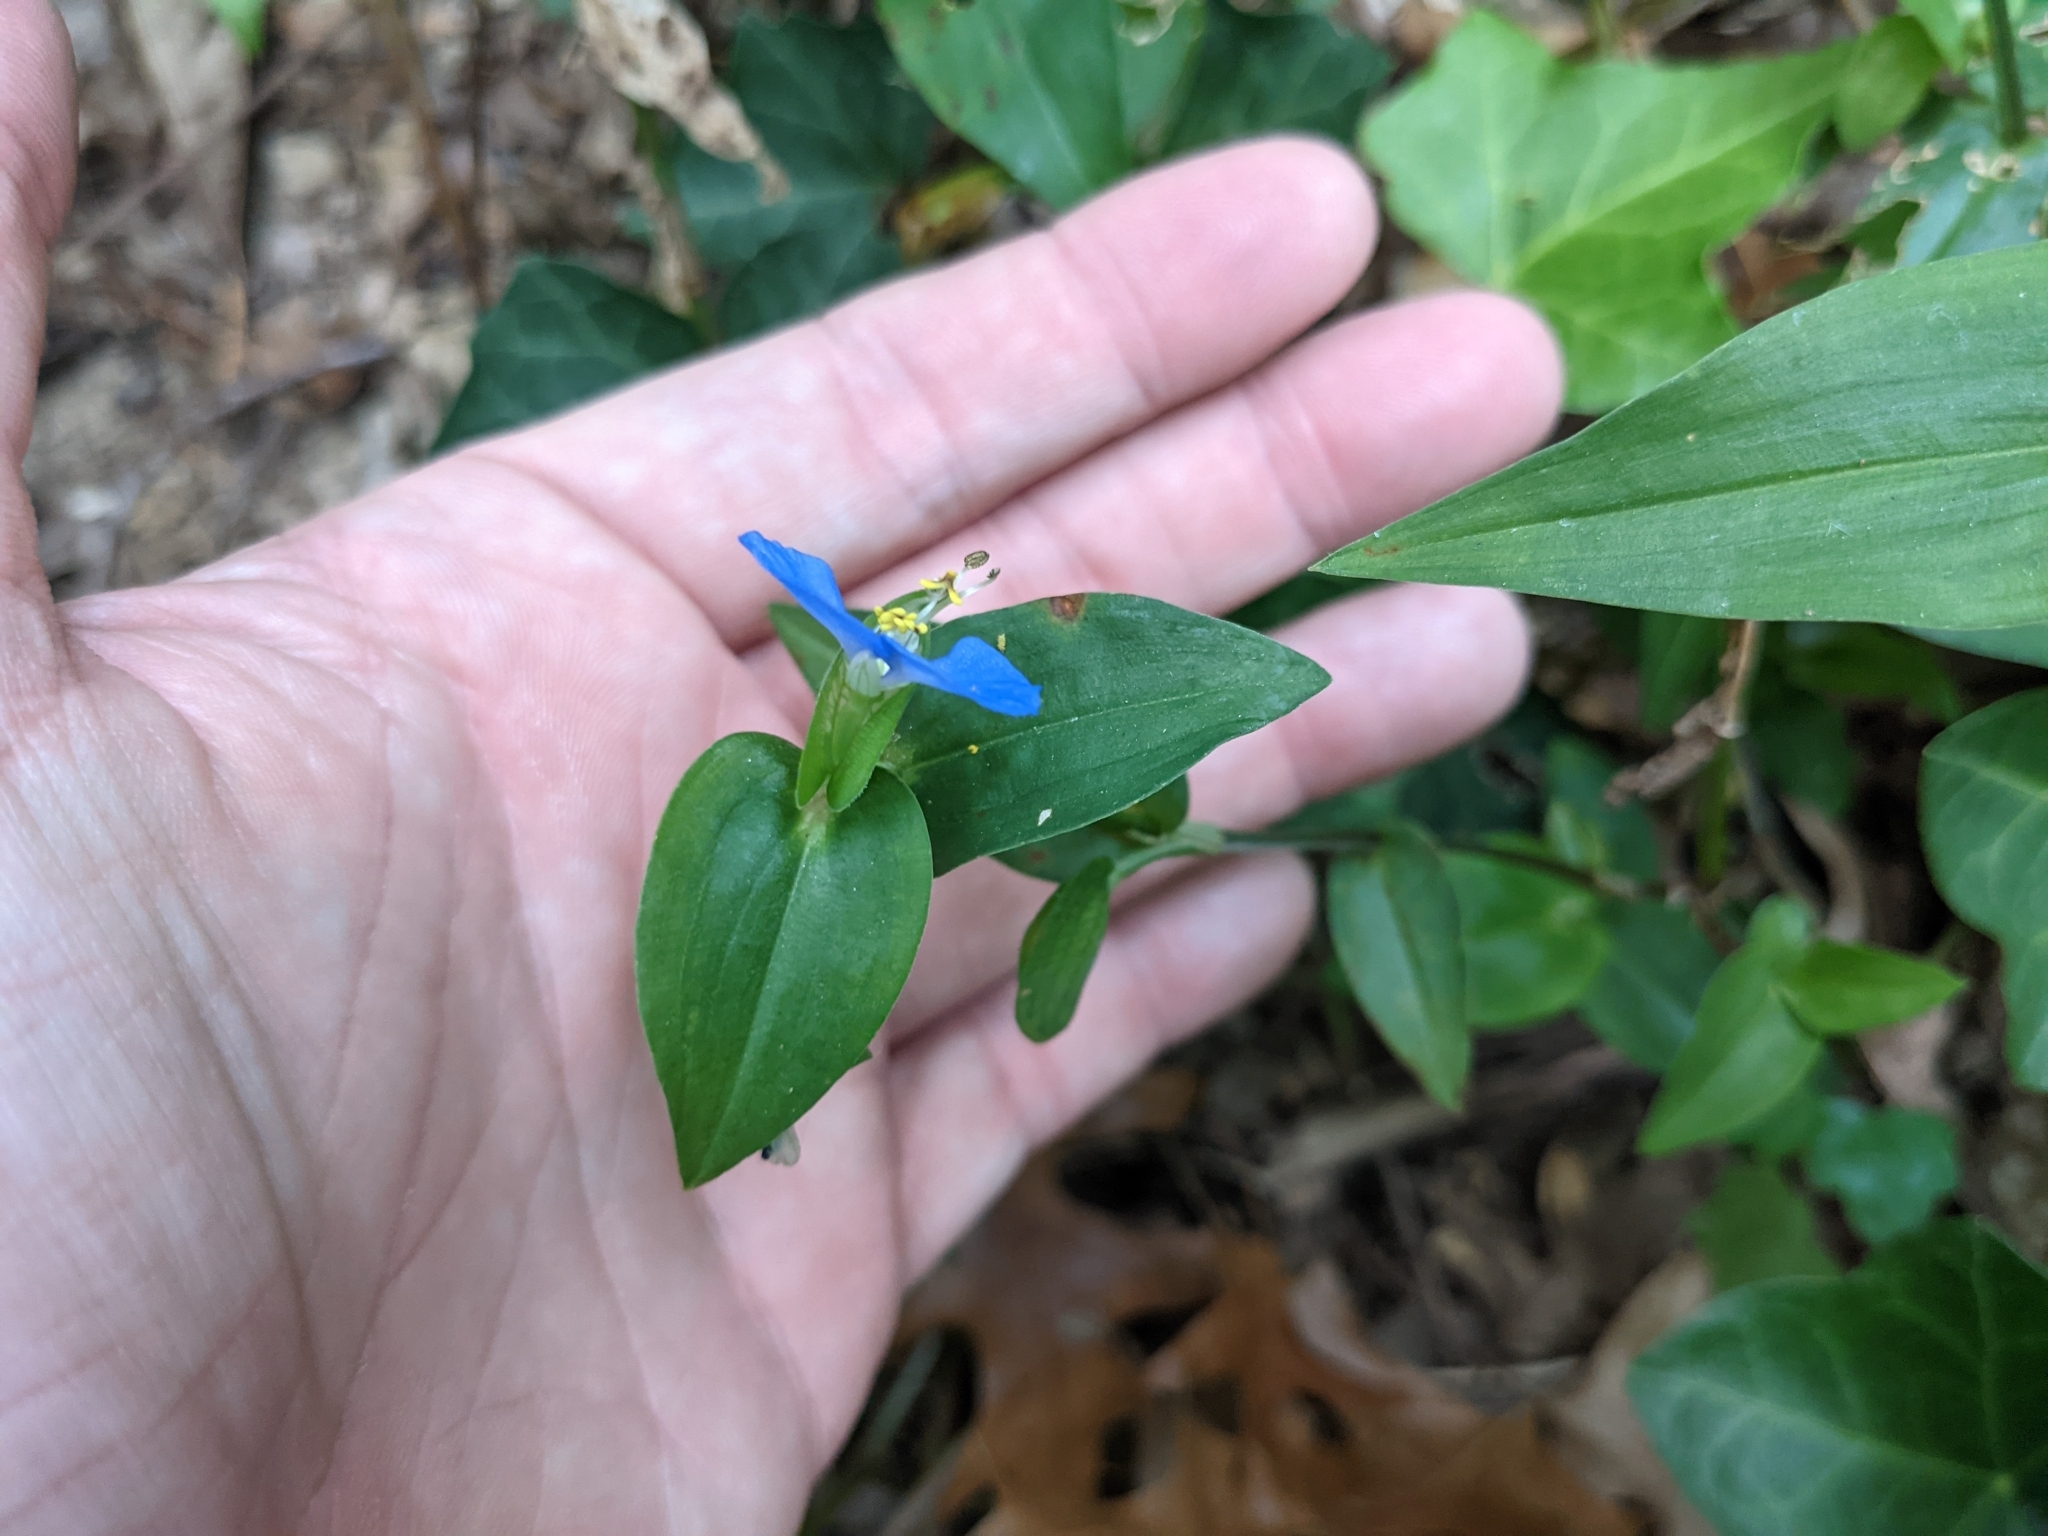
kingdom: Plantae
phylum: Tracheophyta
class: Liliopsida
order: Commelinales
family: Commelinaceae
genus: Commelina
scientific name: Commelina communis
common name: Asiatic dayflower
